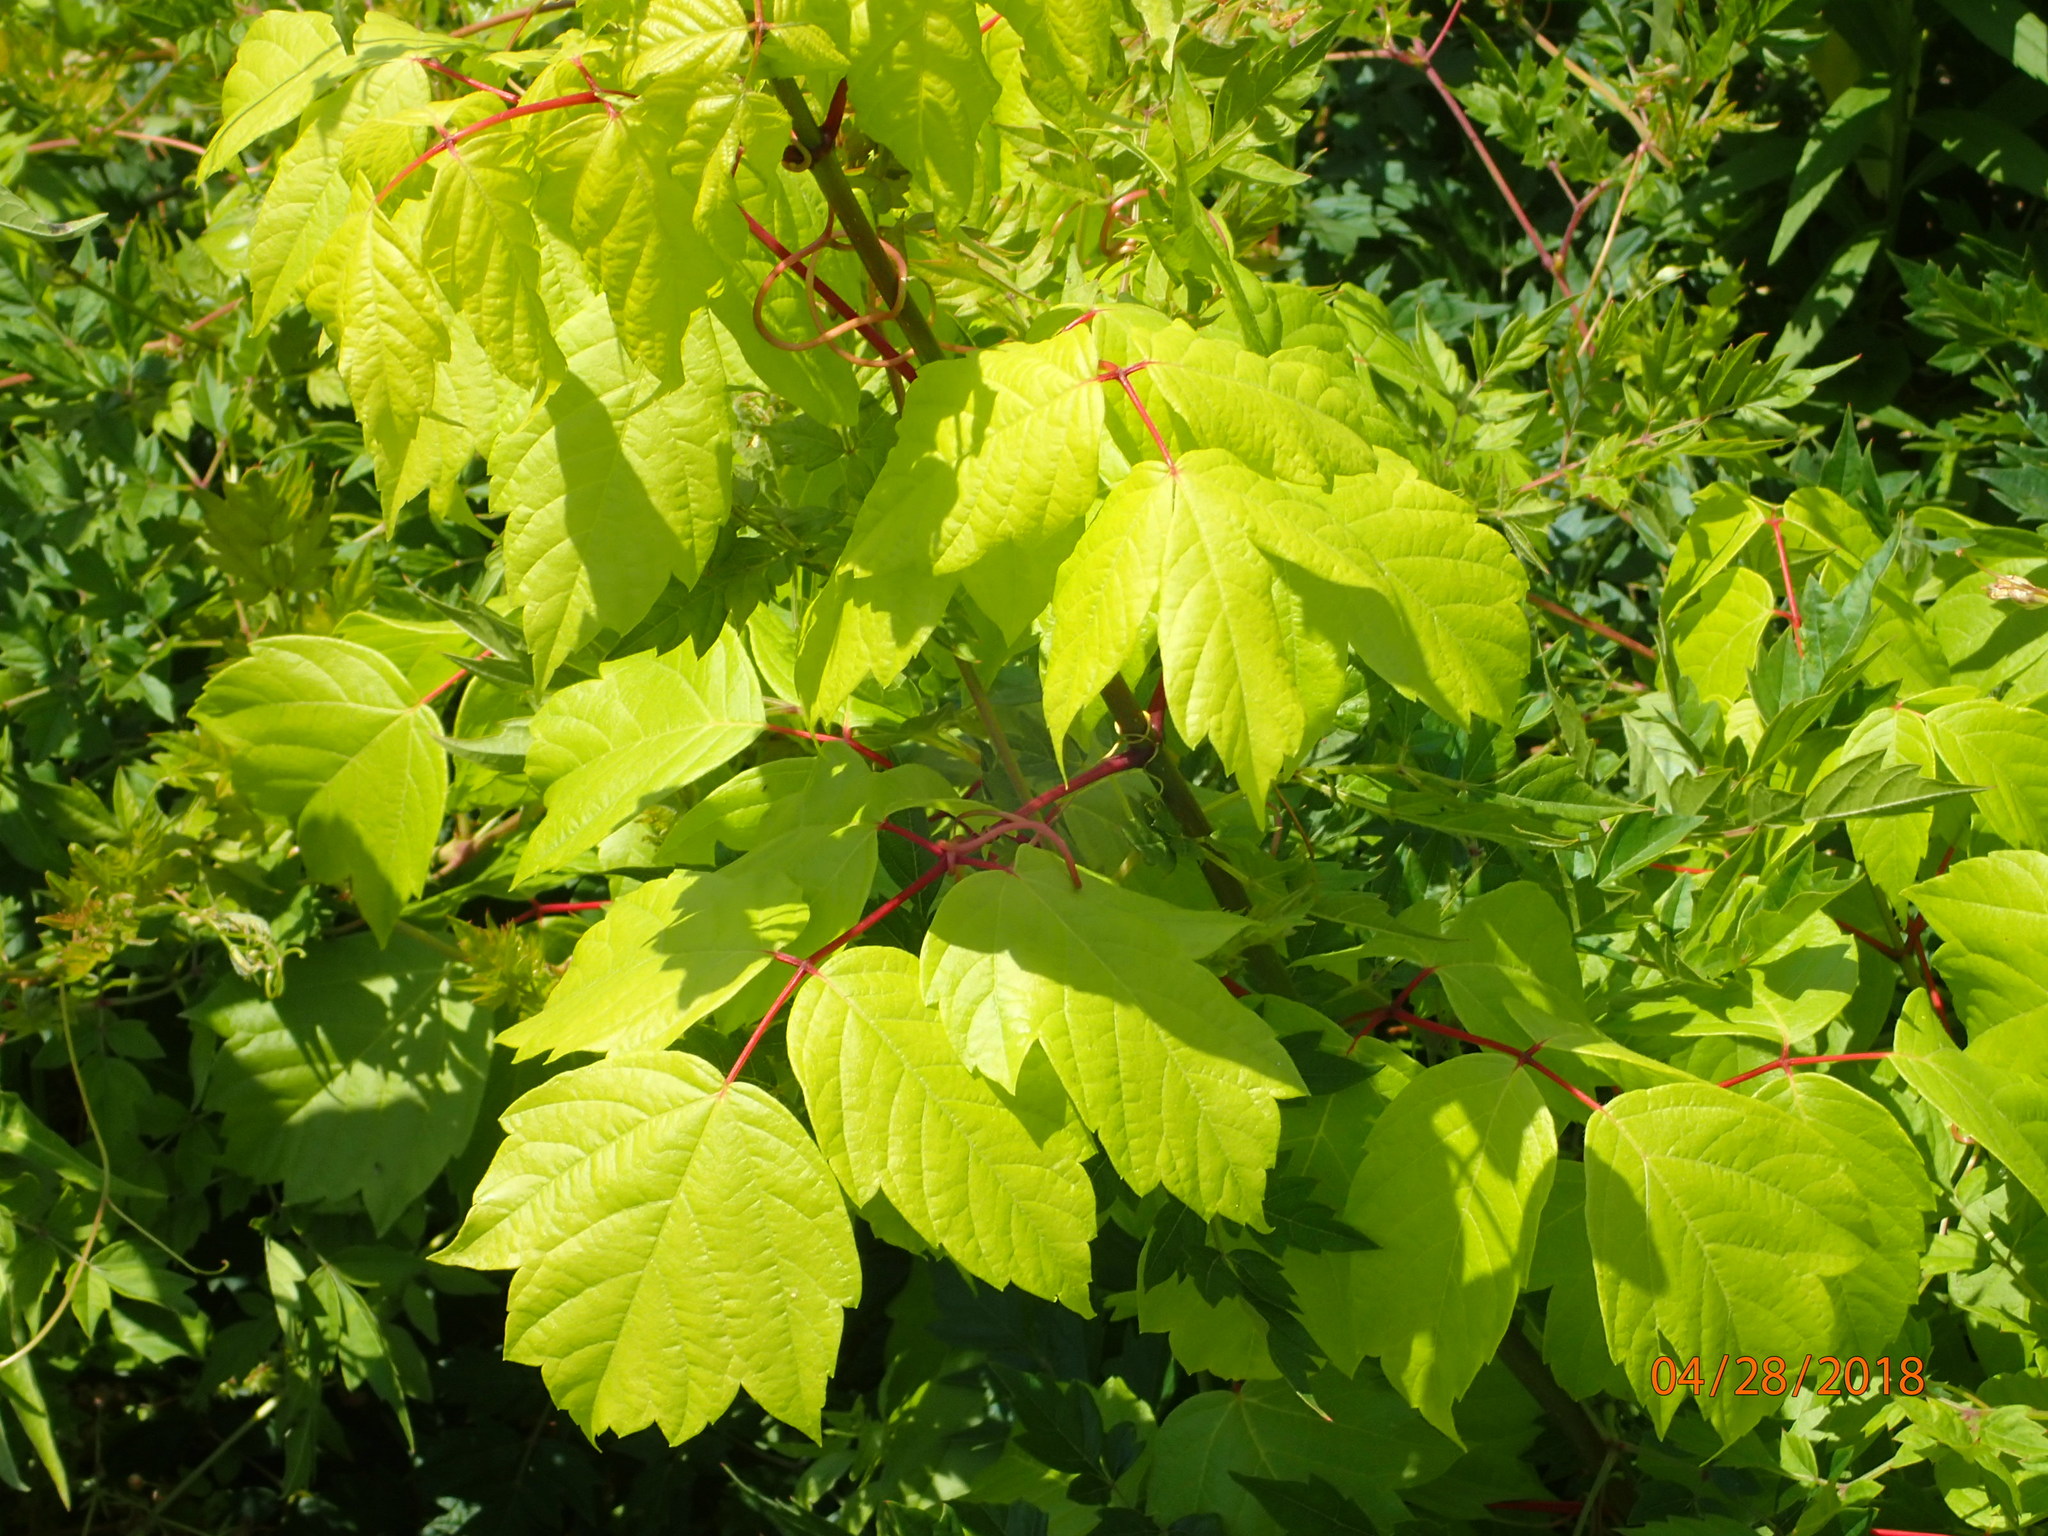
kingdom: Plantae
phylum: Tracheophyta
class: Magnoliopsida
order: Sapindales
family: Sapindaceae
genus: Acer
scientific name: Acer negundo
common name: Ashleaf maple
